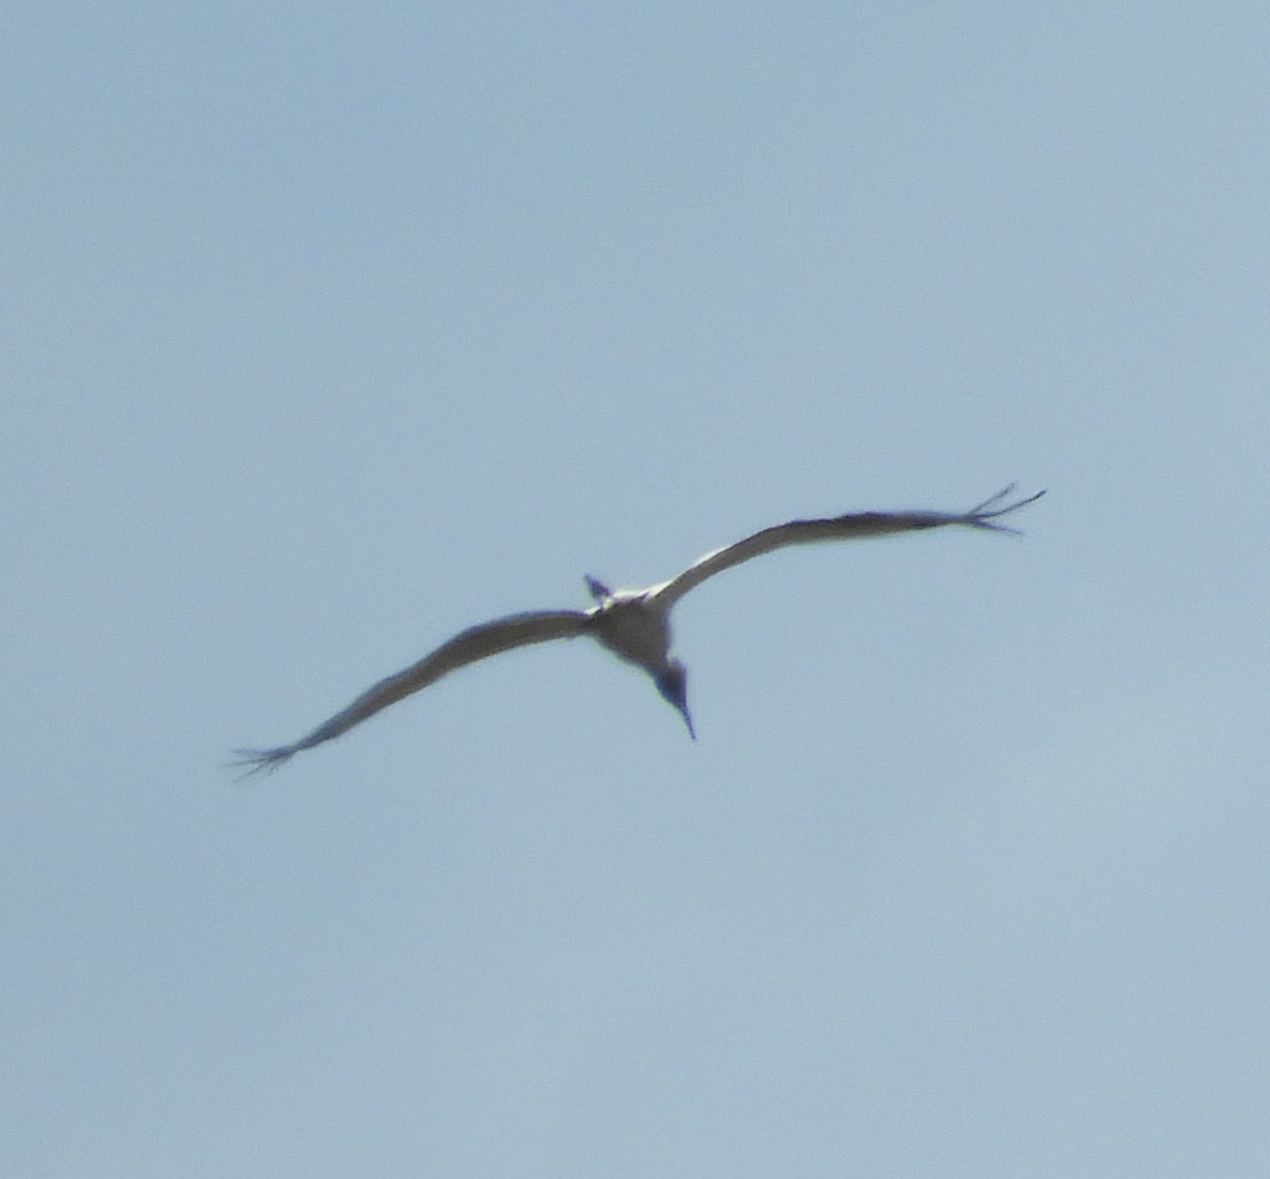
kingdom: Animalia
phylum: Chordata
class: Aves
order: Ciconiiformes
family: Ciconiidae
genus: Mycteria
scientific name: Mycteria americana
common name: Wood stork
